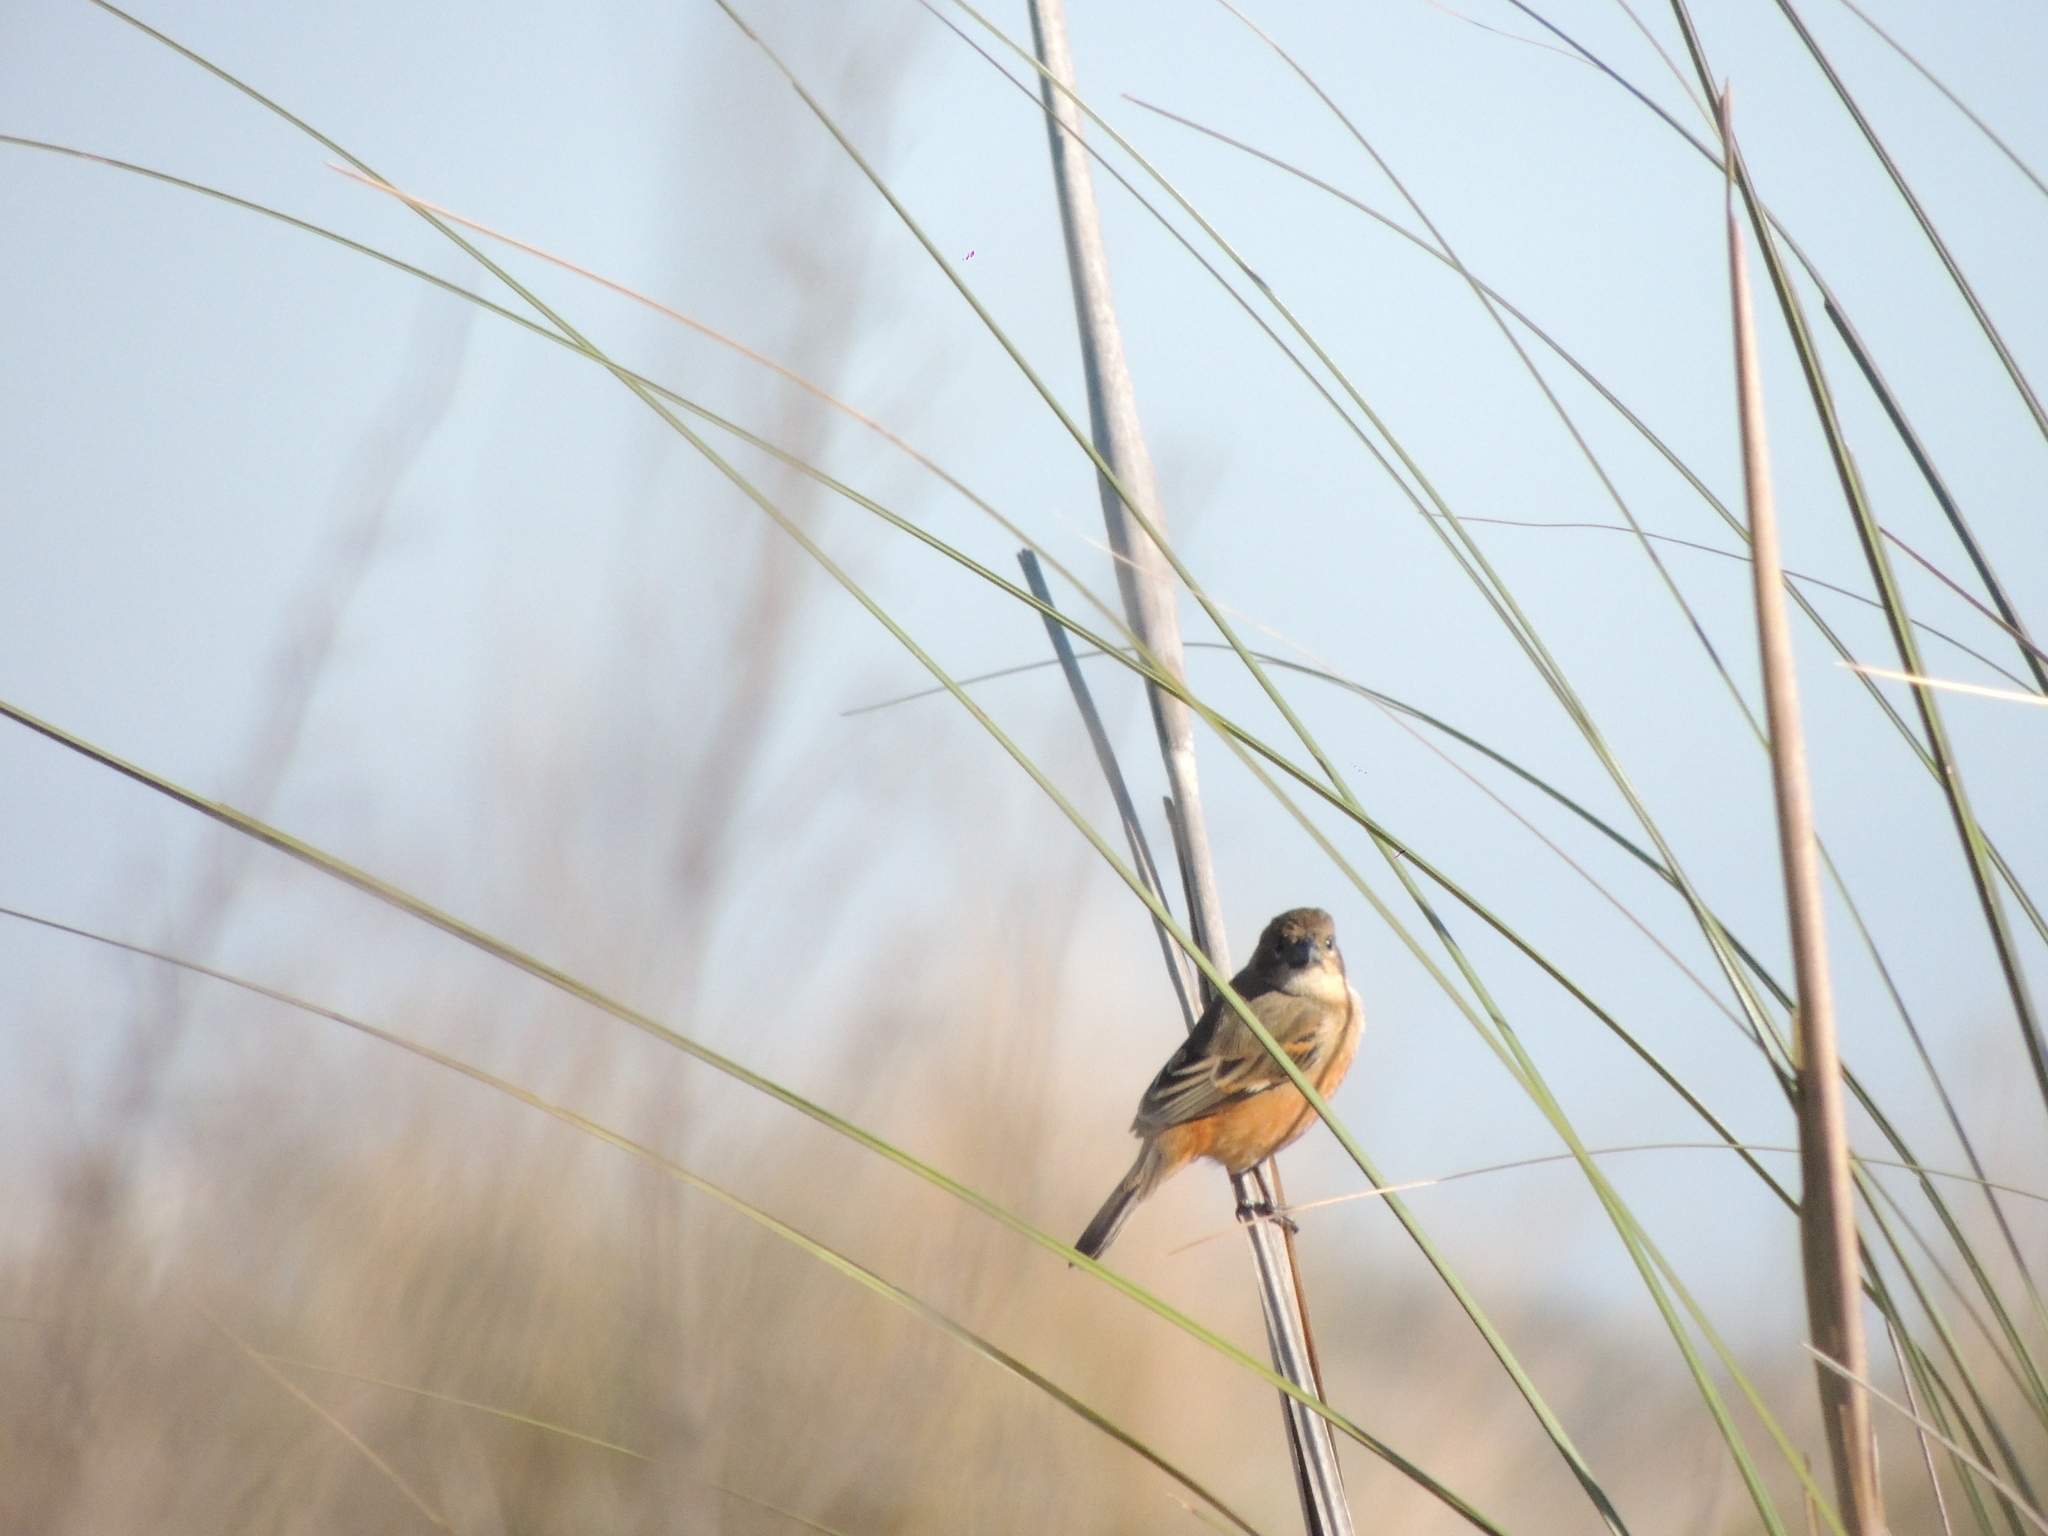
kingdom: Animalia
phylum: Chordata
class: Aves
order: Passeriformes
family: Thraupidae
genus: Sporophila
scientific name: Sporophila collaris
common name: Rusty-collared seedeater
